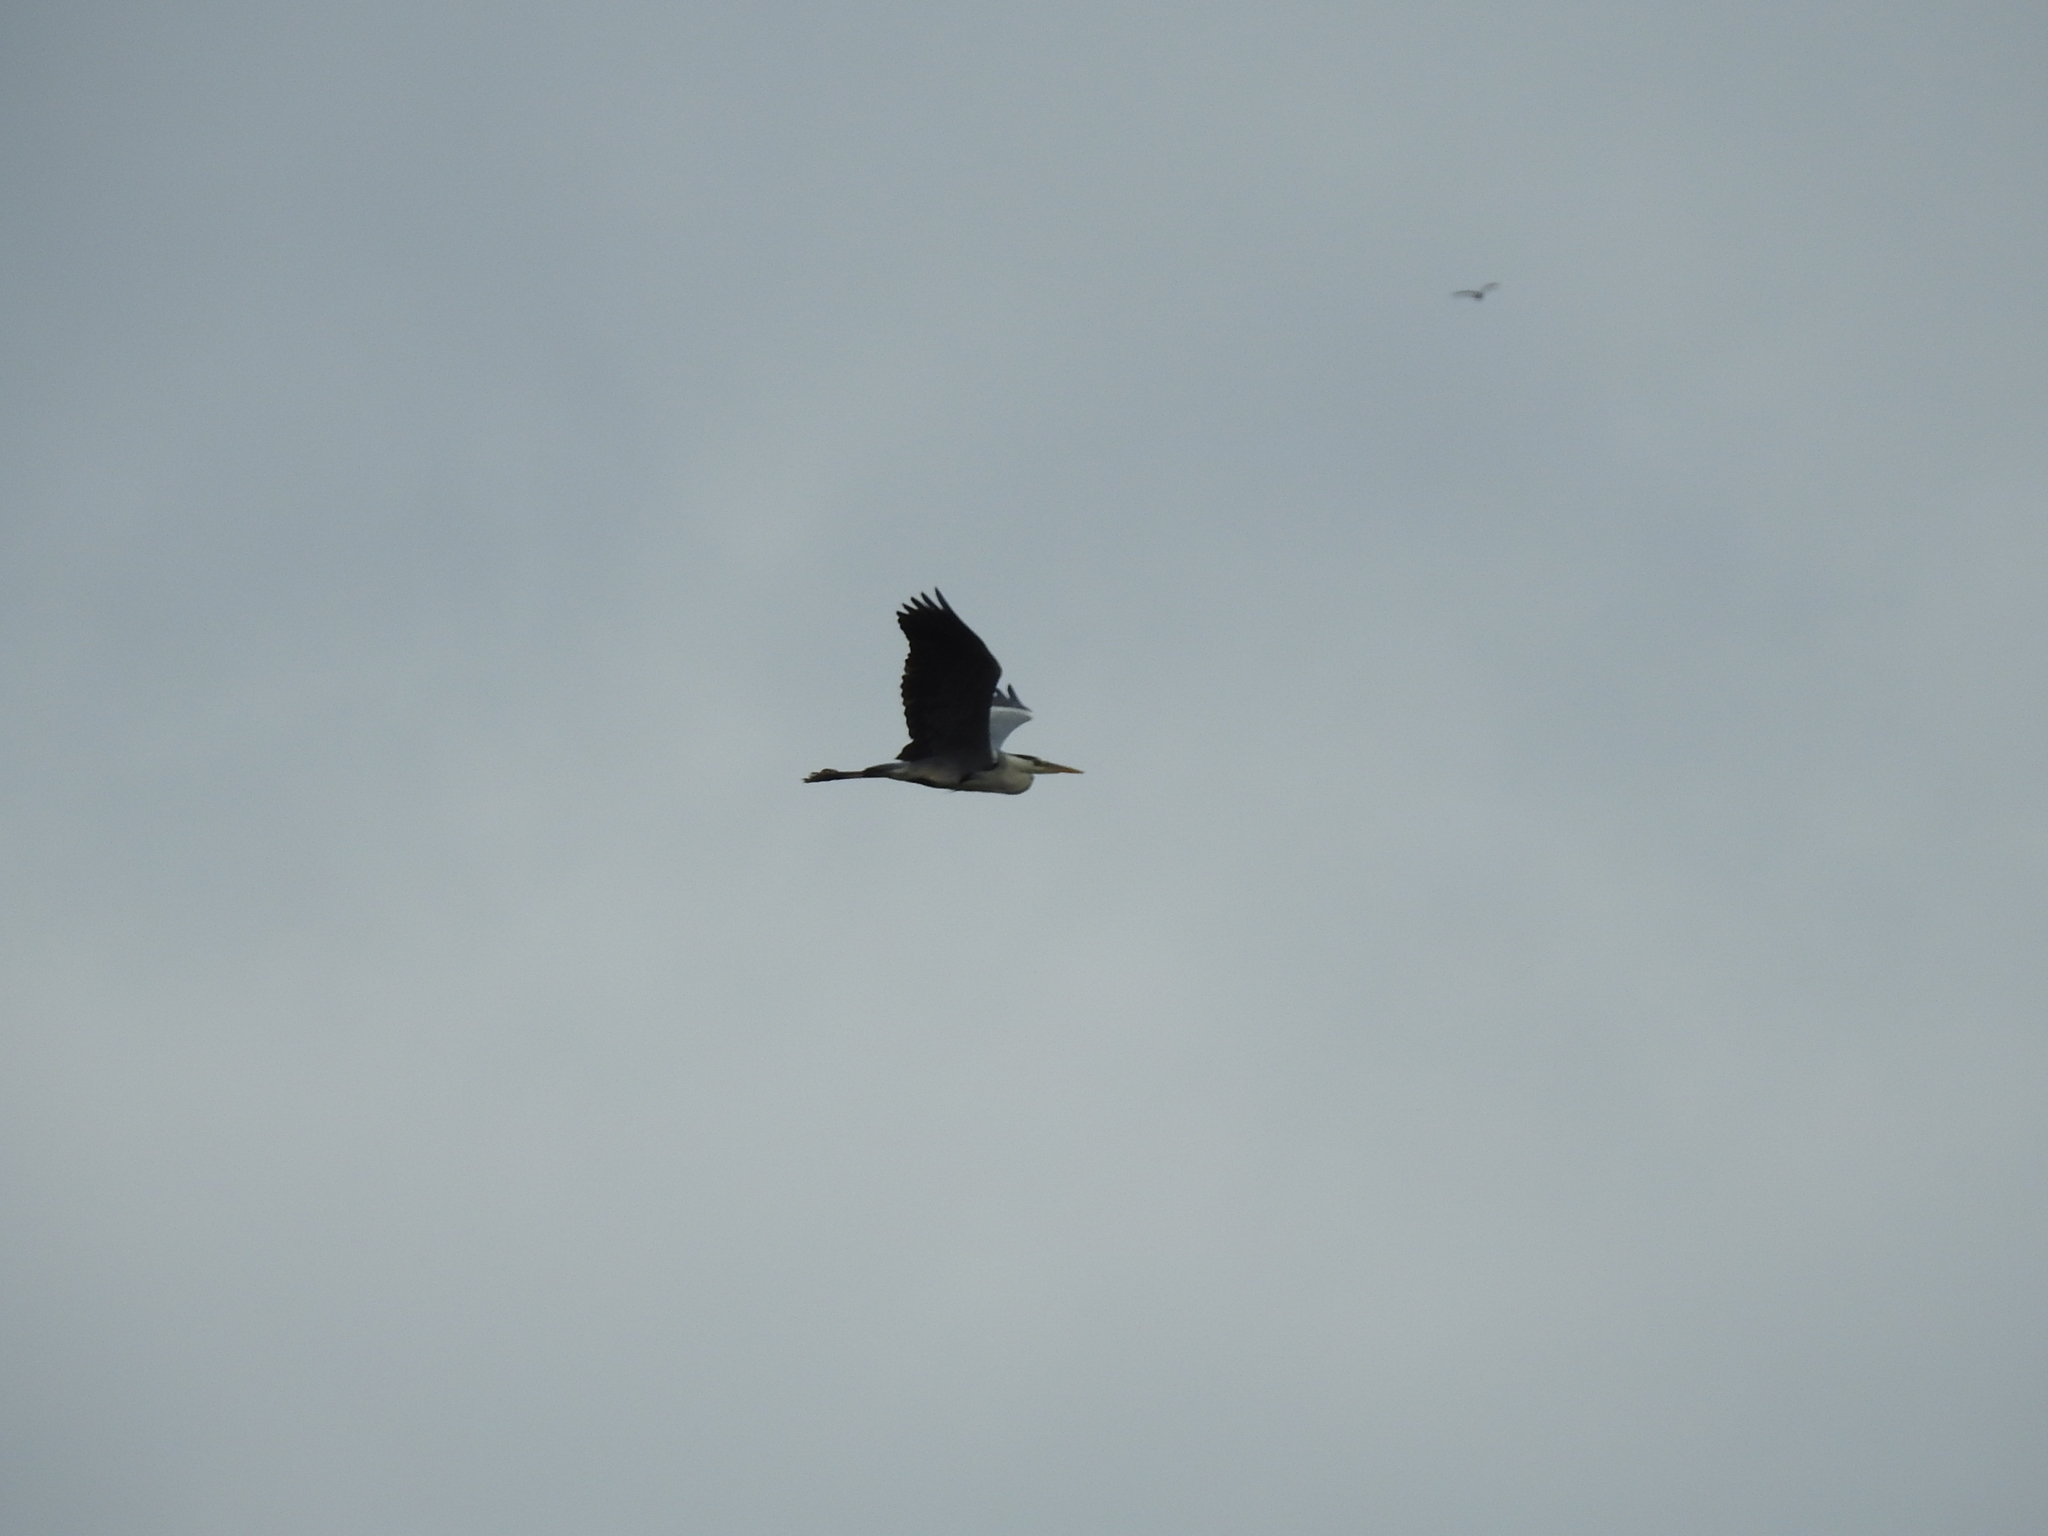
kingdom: Animalia
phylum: Chordata
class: Aves
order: Pelecaniformes
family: Ardeidae
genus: Ardea
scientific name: Ardea cinerea
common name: Grey heron
